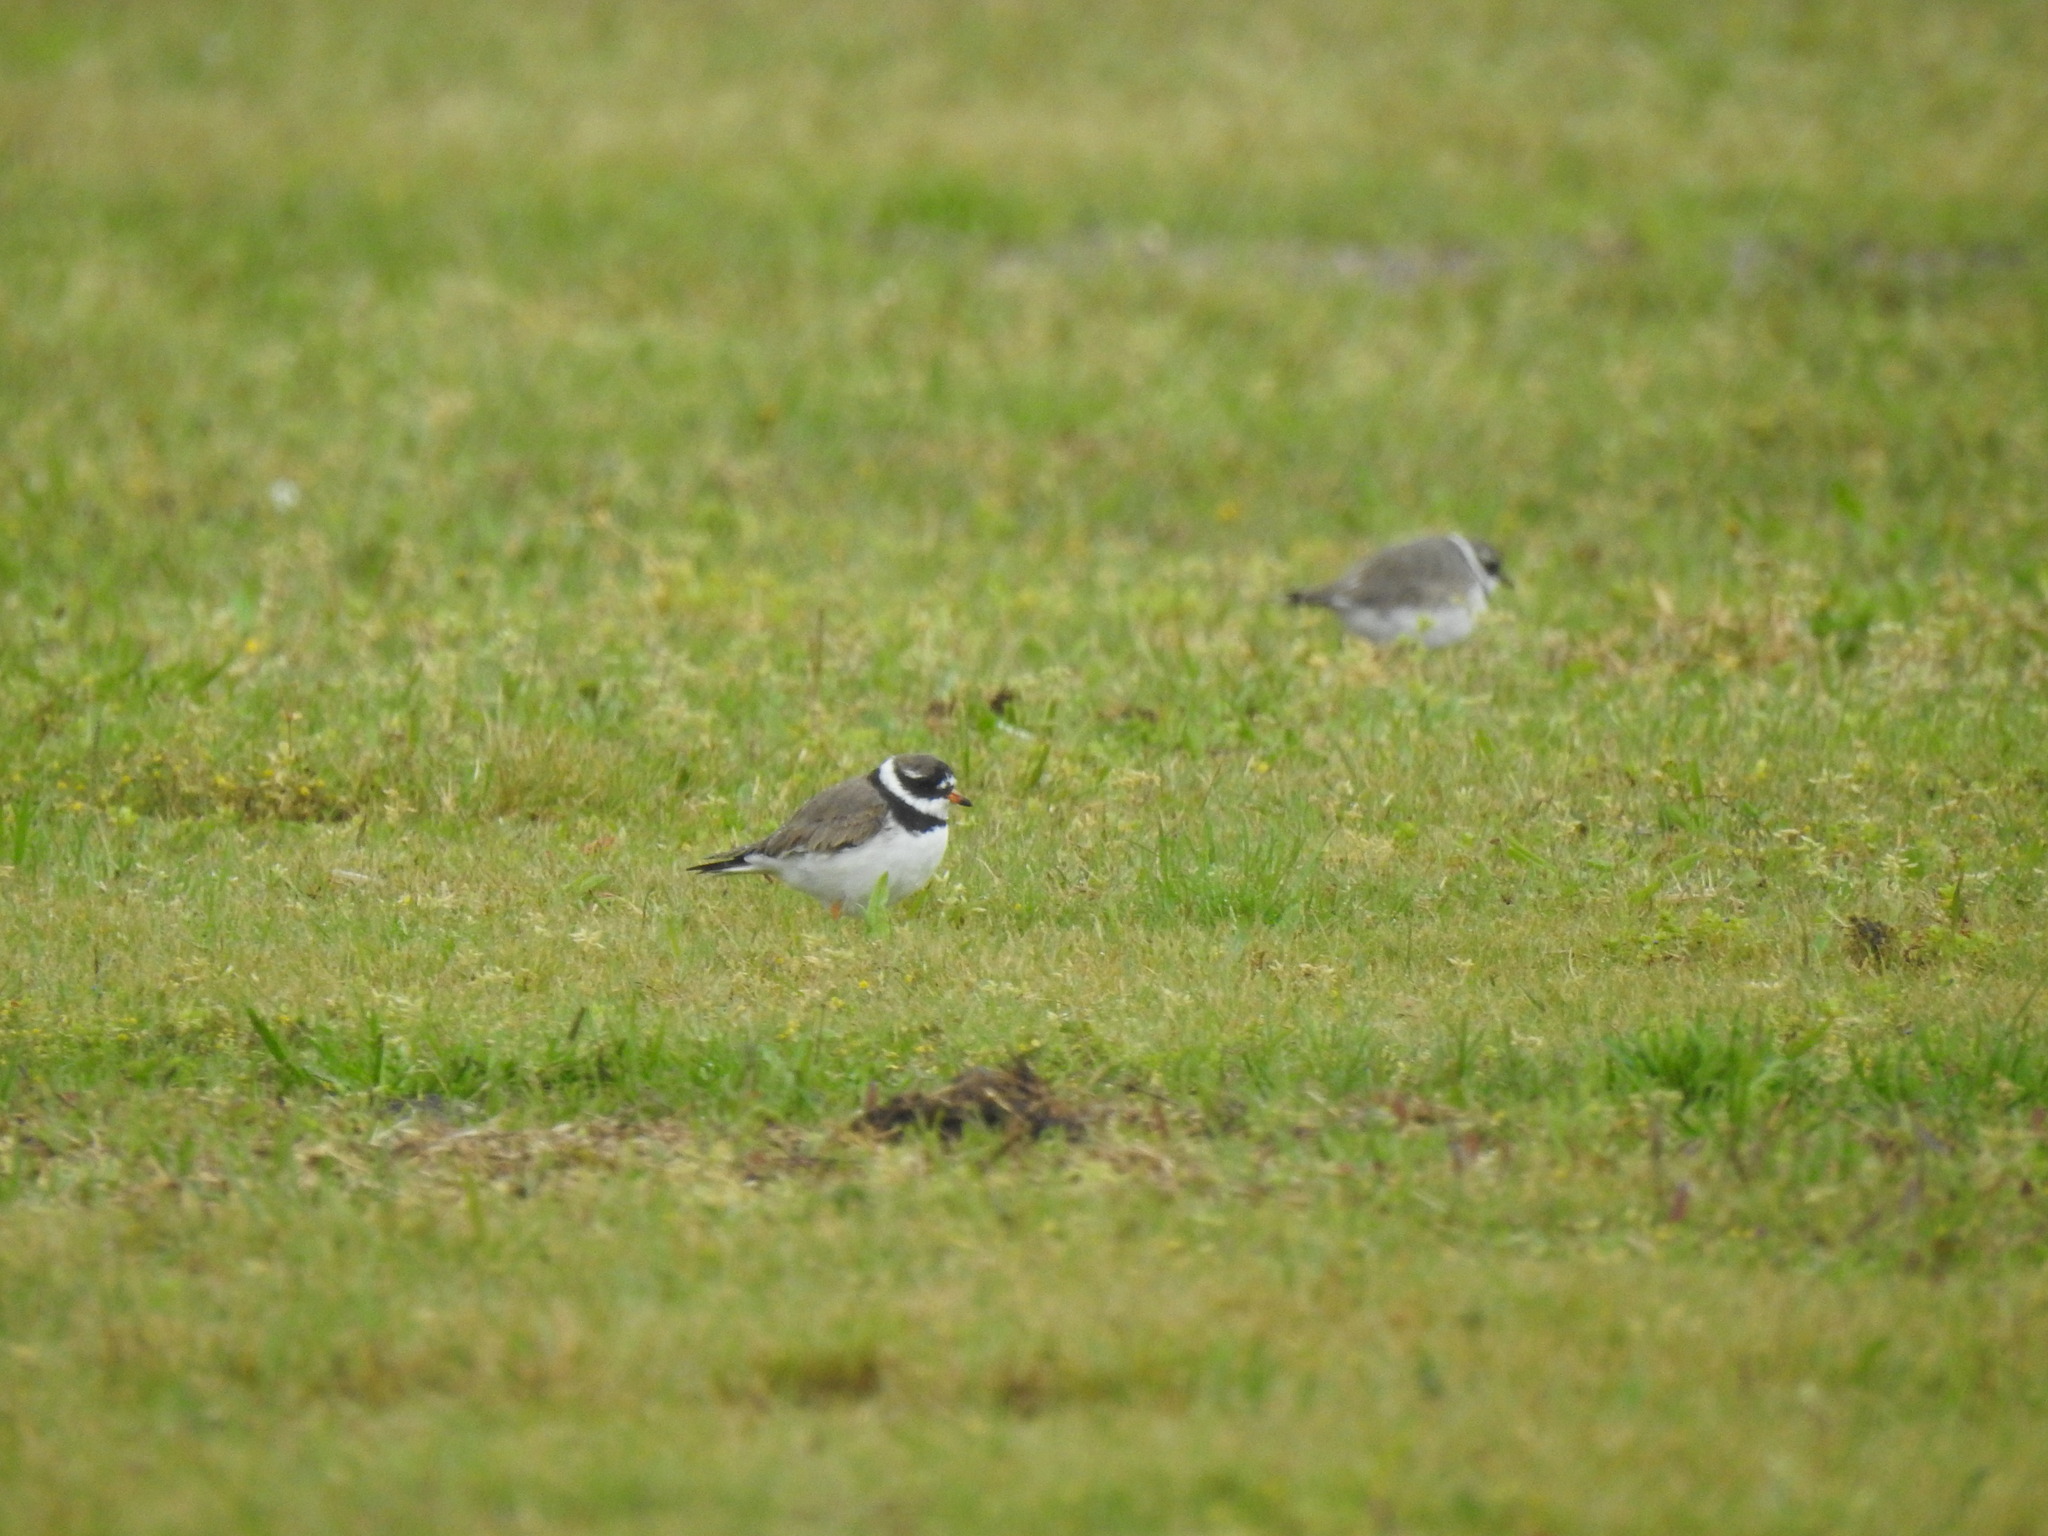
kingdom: Animalia
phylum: Chordata
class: Aves
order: Charadriiformes
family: Charadriidae
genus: Charadrius
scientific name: Charadrius hiaticula
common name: Common ringed plover
